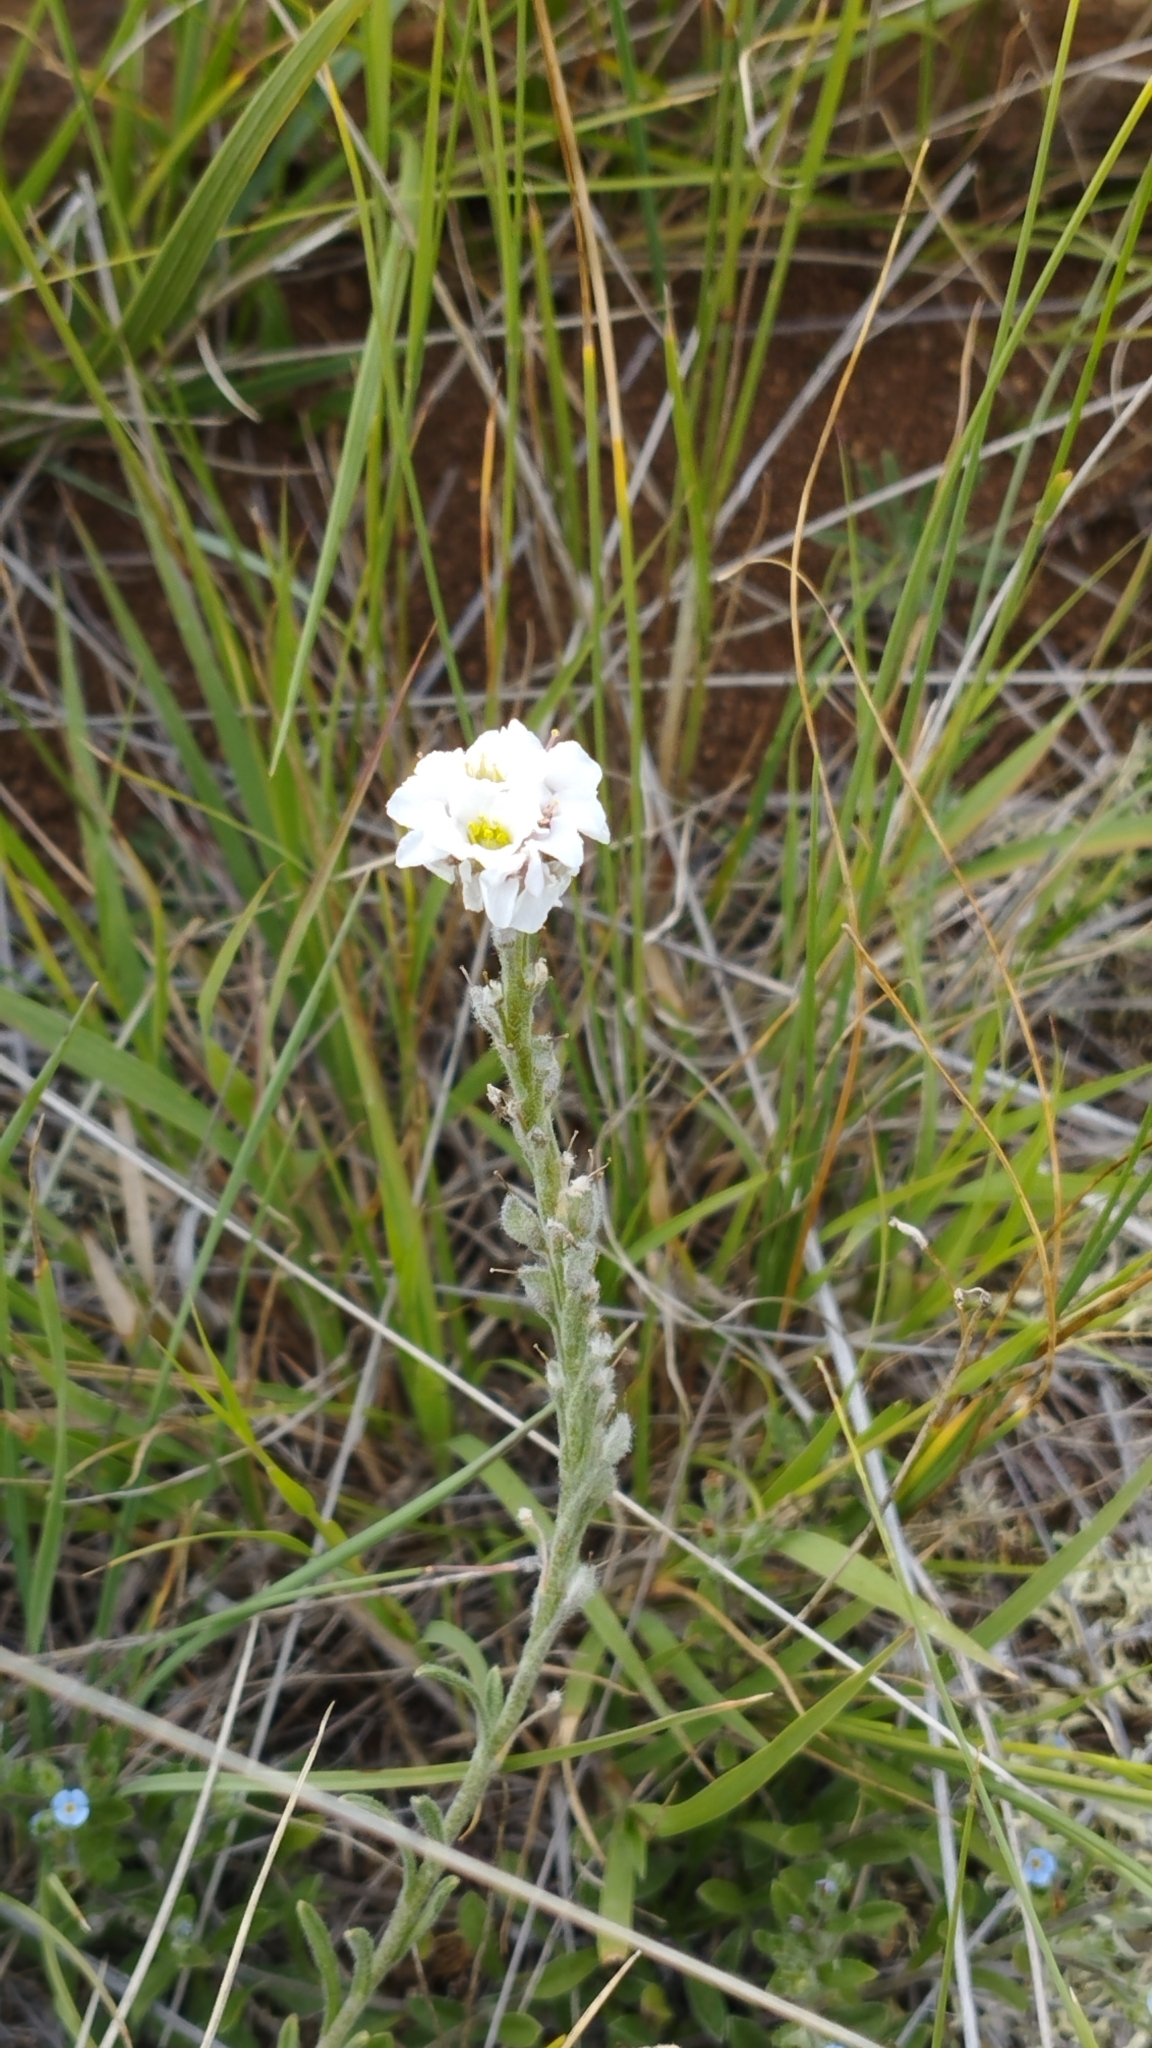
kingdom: Plantae
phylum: Tracheophyta
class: Magnoliopsida
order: Brassicales
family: Brassicaceae
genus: Stevenia
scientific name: Stevenia tenuifolia
